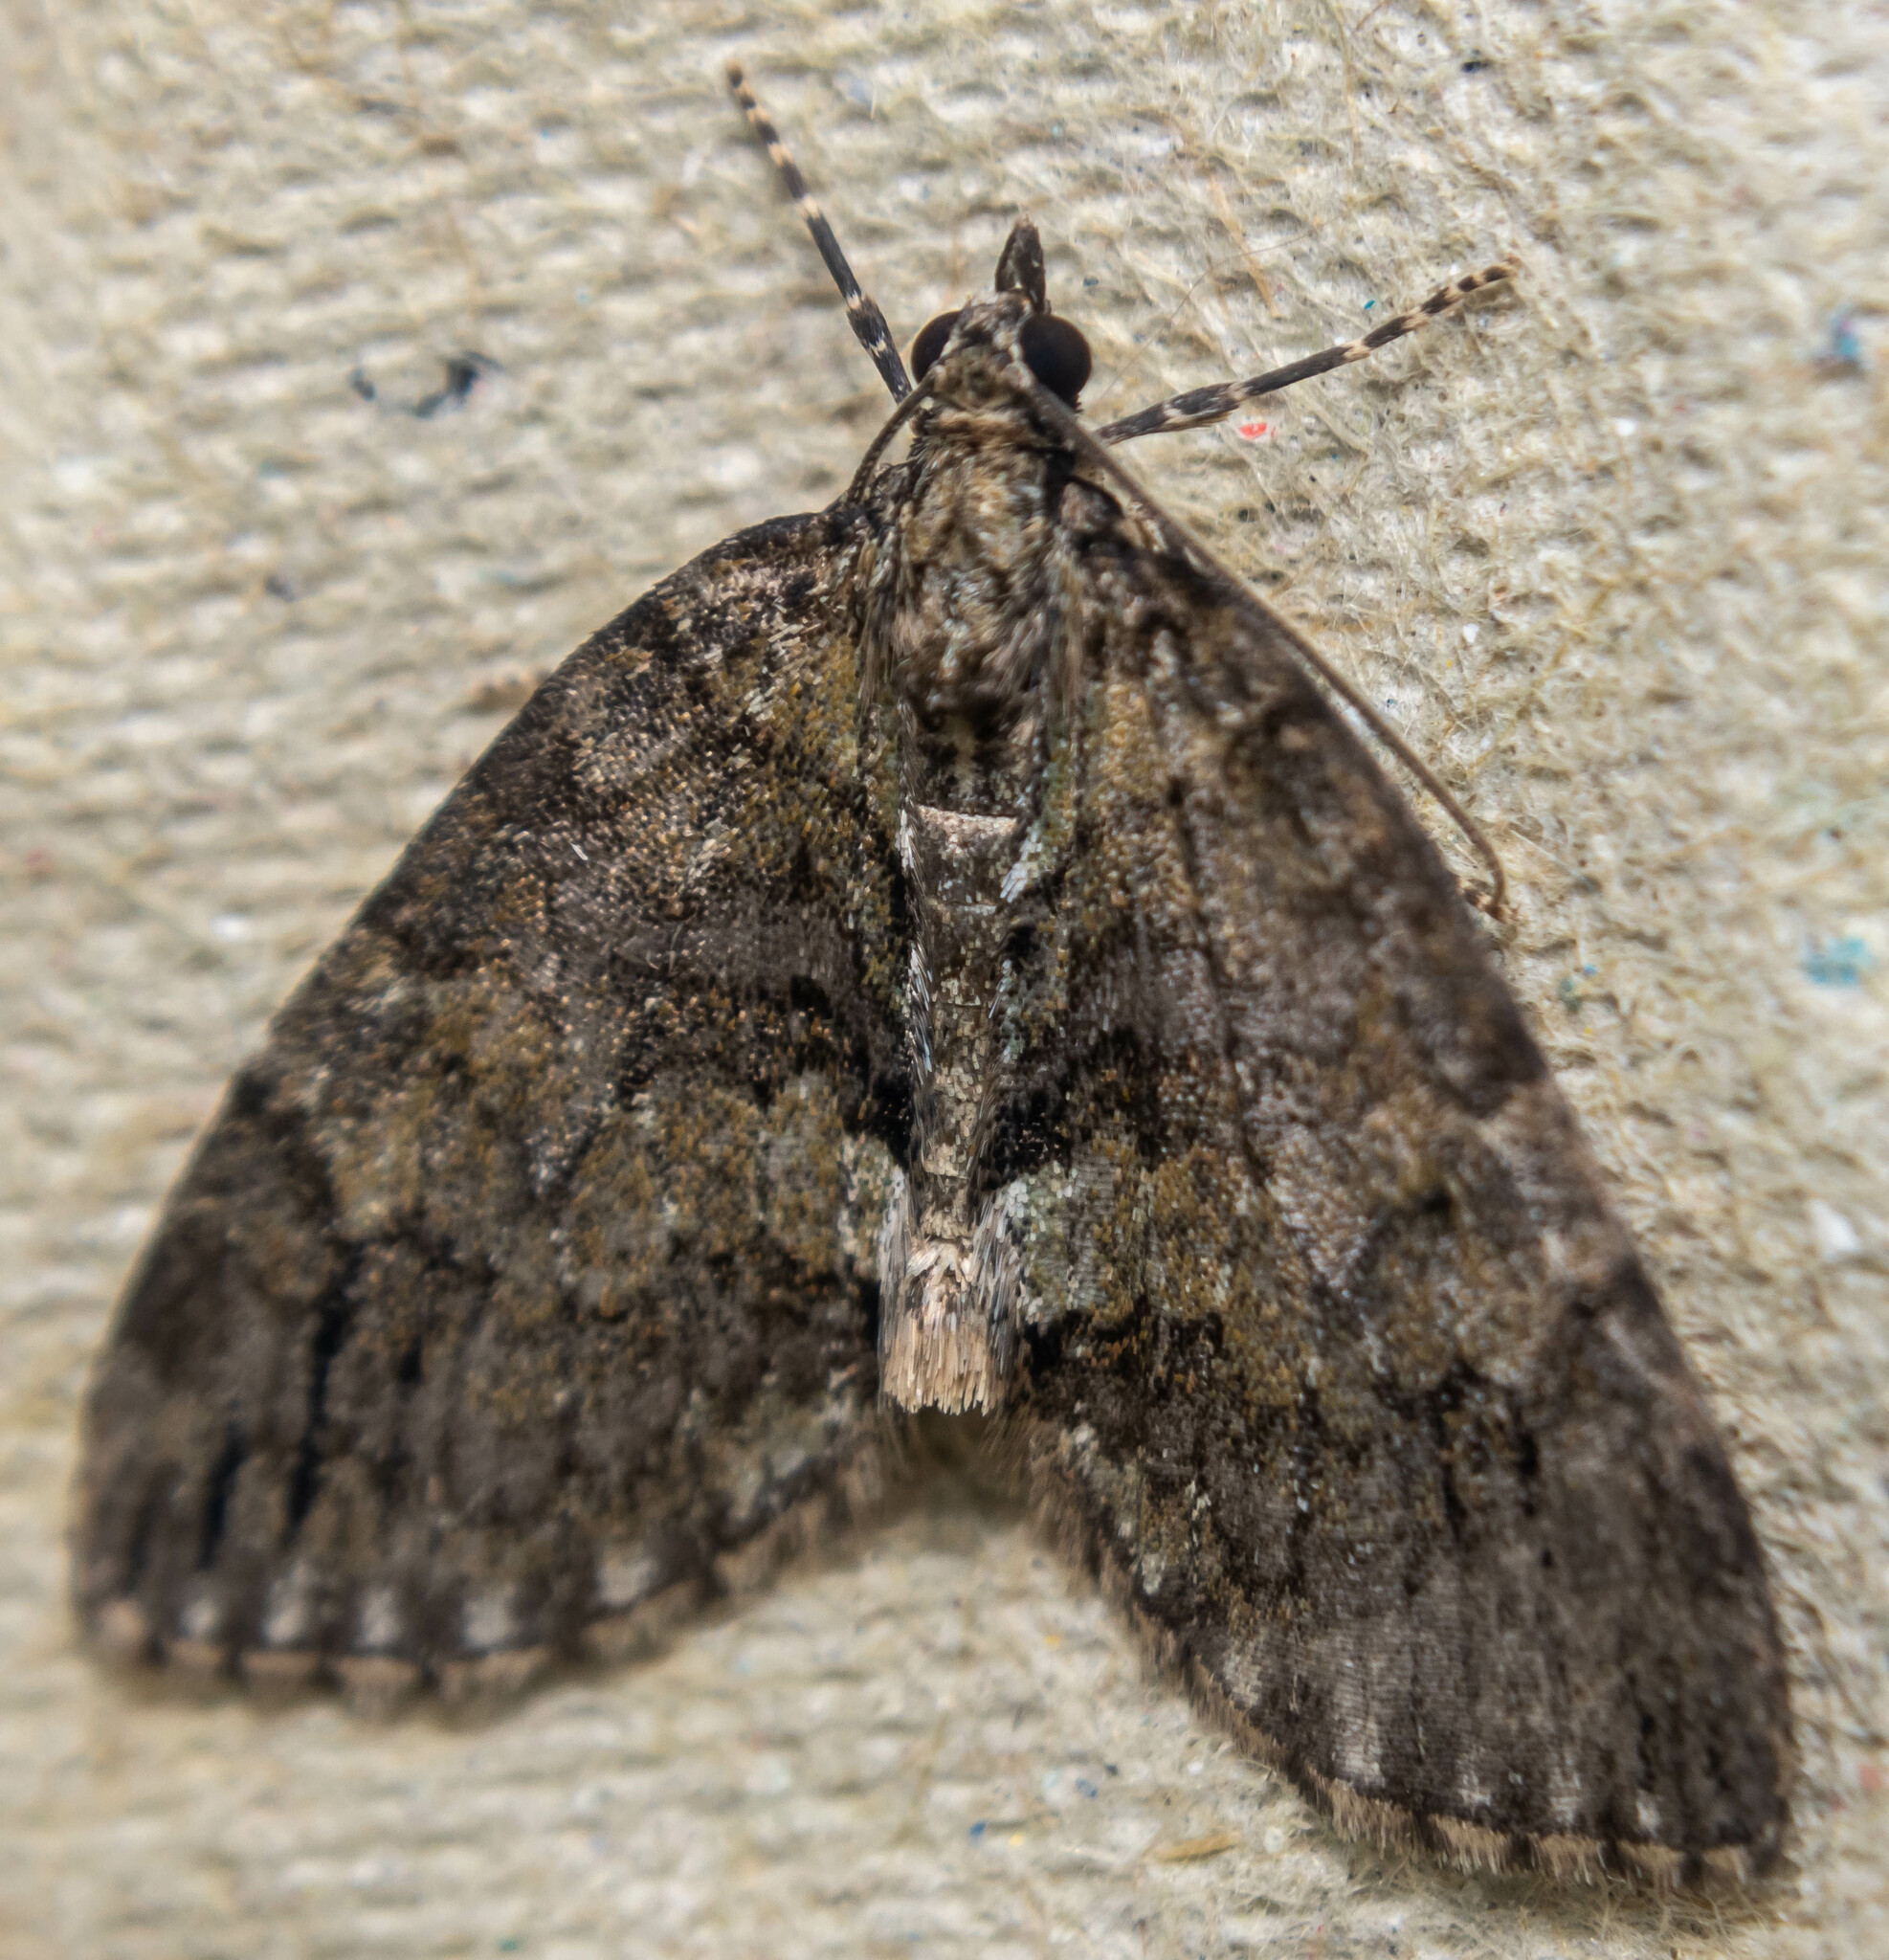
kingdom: Animalia
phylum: Arthropoda
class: Insecta
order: Lepidoptera
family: Geometridae
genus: Hydriomena
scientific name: Hydriomena impluviata
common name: May highflyer
